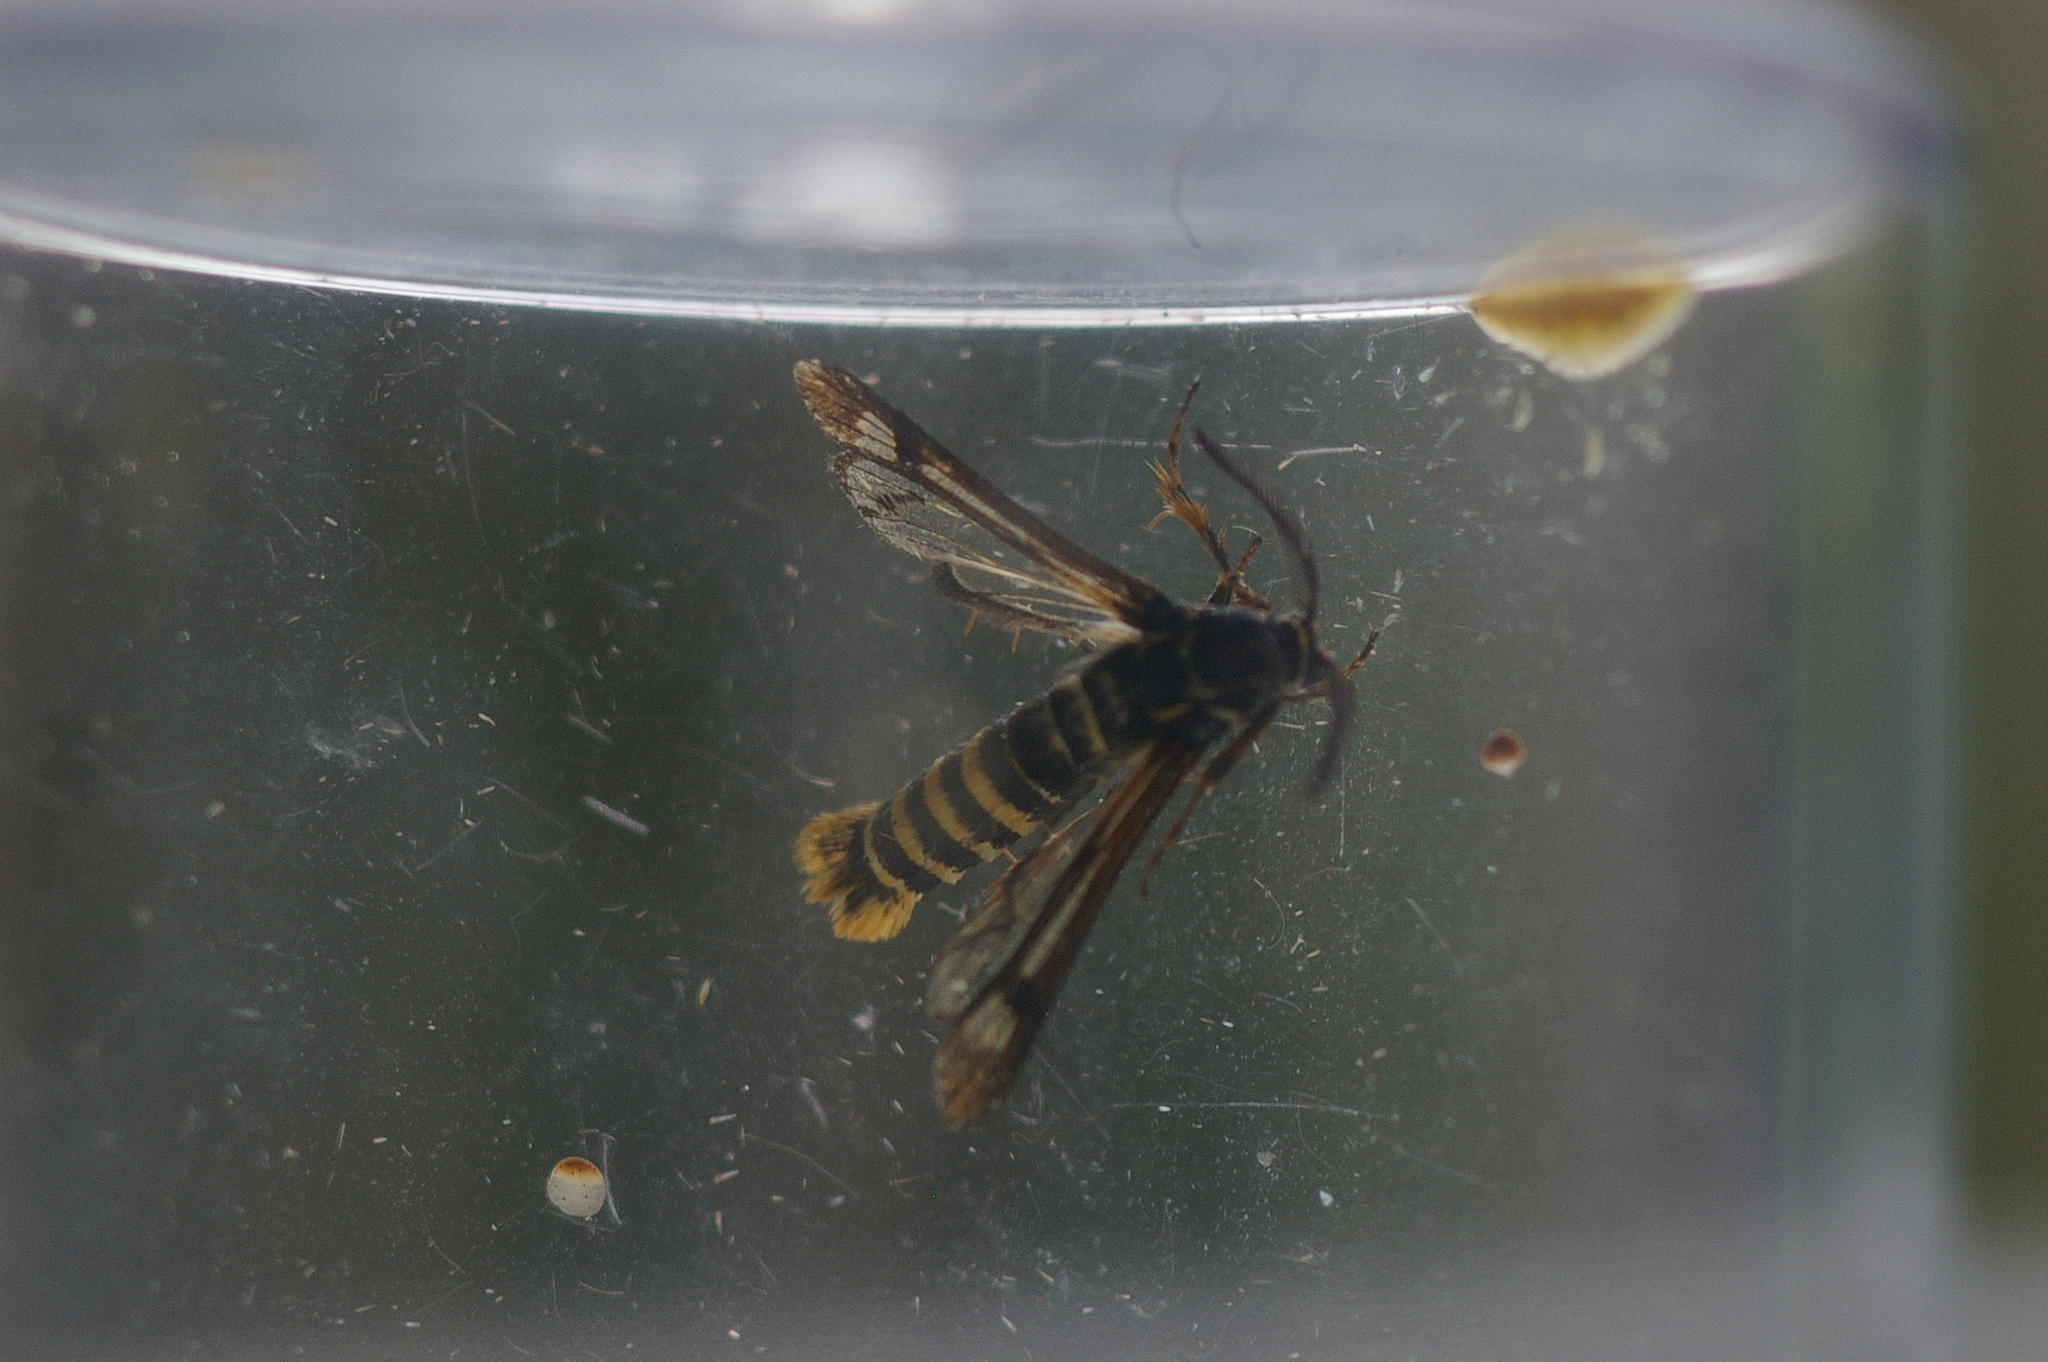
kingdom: Animalia
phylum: Arthropoda
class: Insecta
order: Lepidoptera
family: Sesiidae
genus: Pennisetia
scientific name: Pennisetia hylaeiformis
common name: Raspberry clearwing
